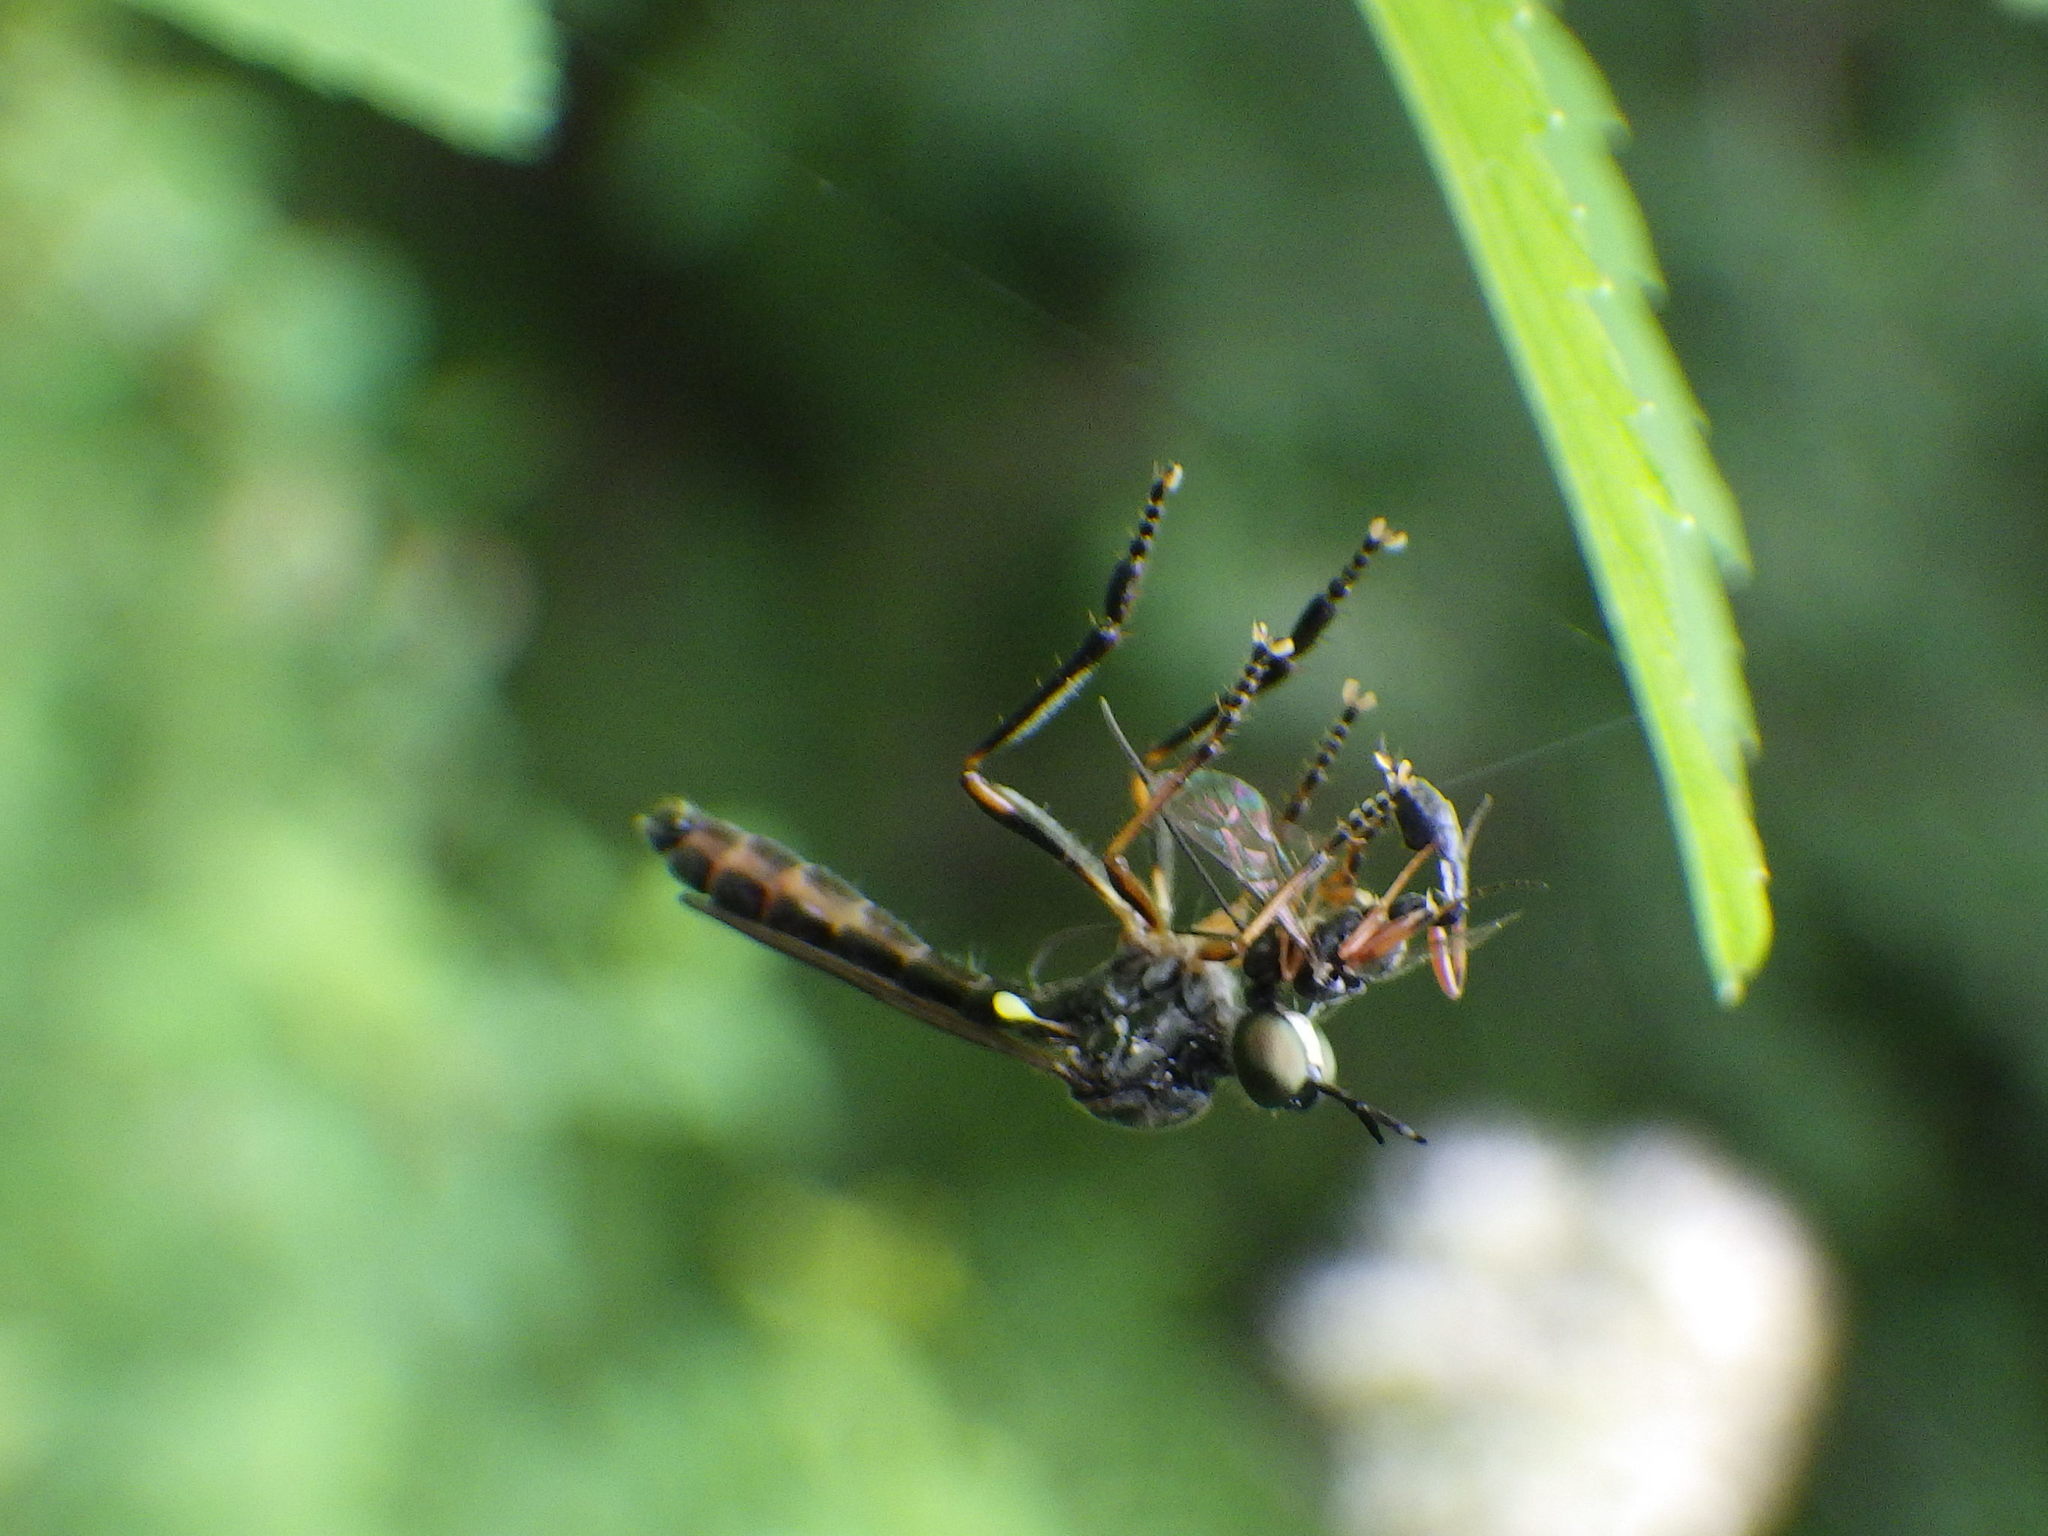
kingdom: Animalia
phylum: Arthropoda
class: Insecta
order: Diptera
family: Asilidae
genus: Dioctria
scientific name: Dioctria hyalipennis
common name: Stripe-legged robberfly
